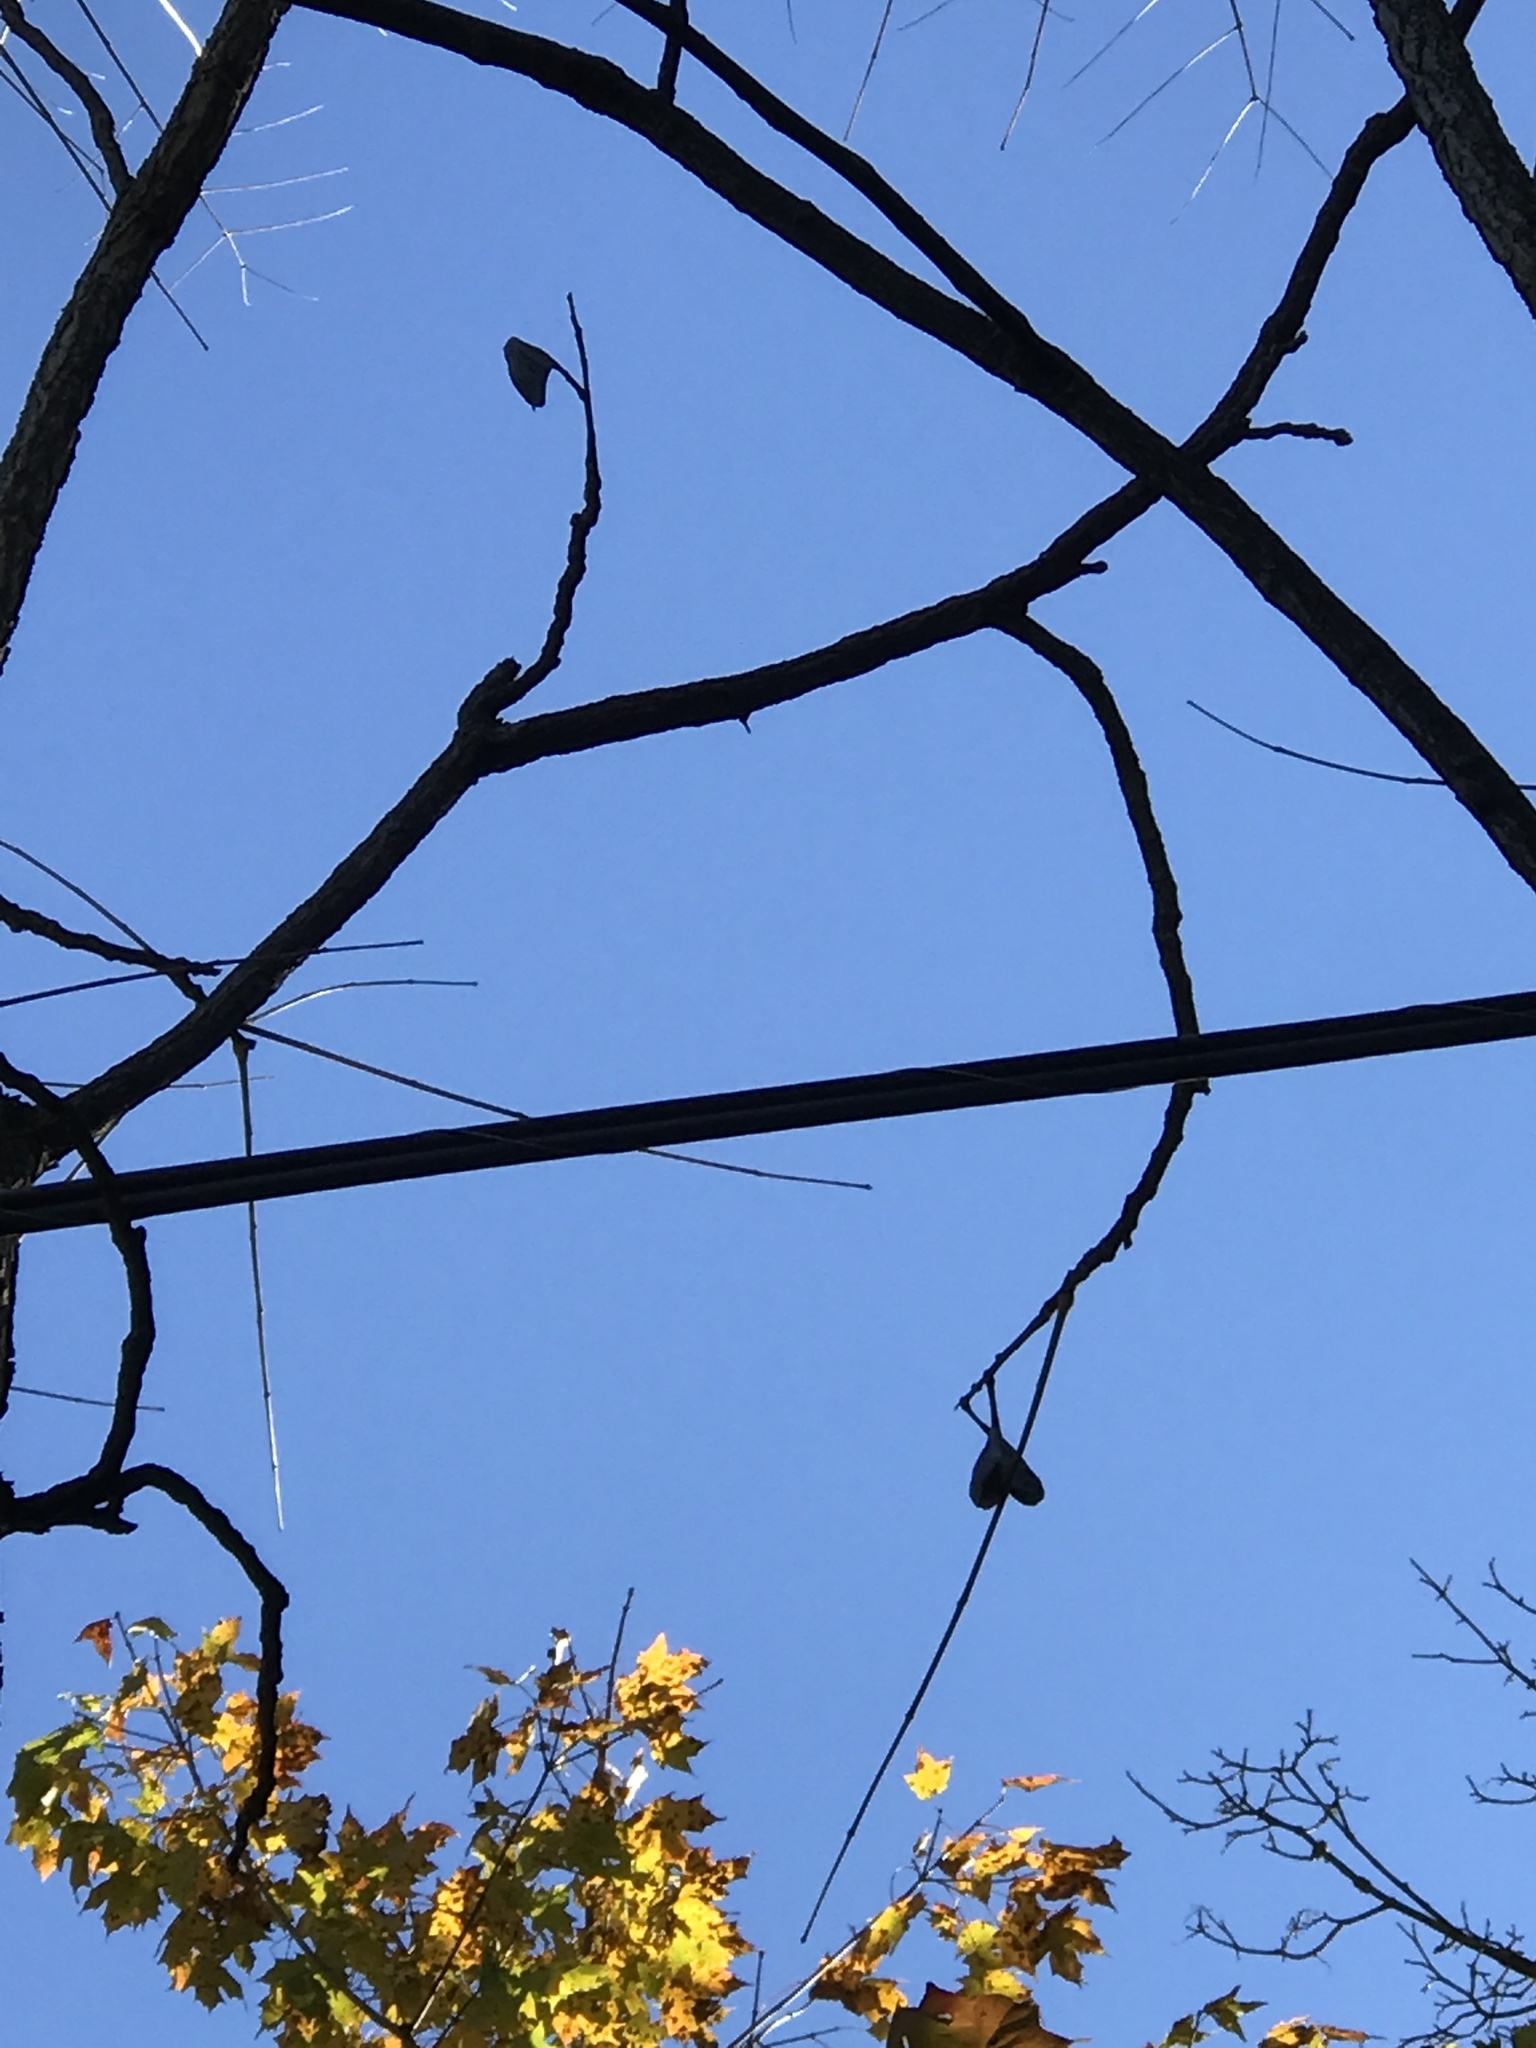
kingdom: Plantae
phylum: Tracheophyta
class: Magnoliopsida
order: Fabales
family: Fabaceae
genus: Gymnocladus
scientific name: Gymnocladus dioicus
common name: Kentucky coffee-tree
